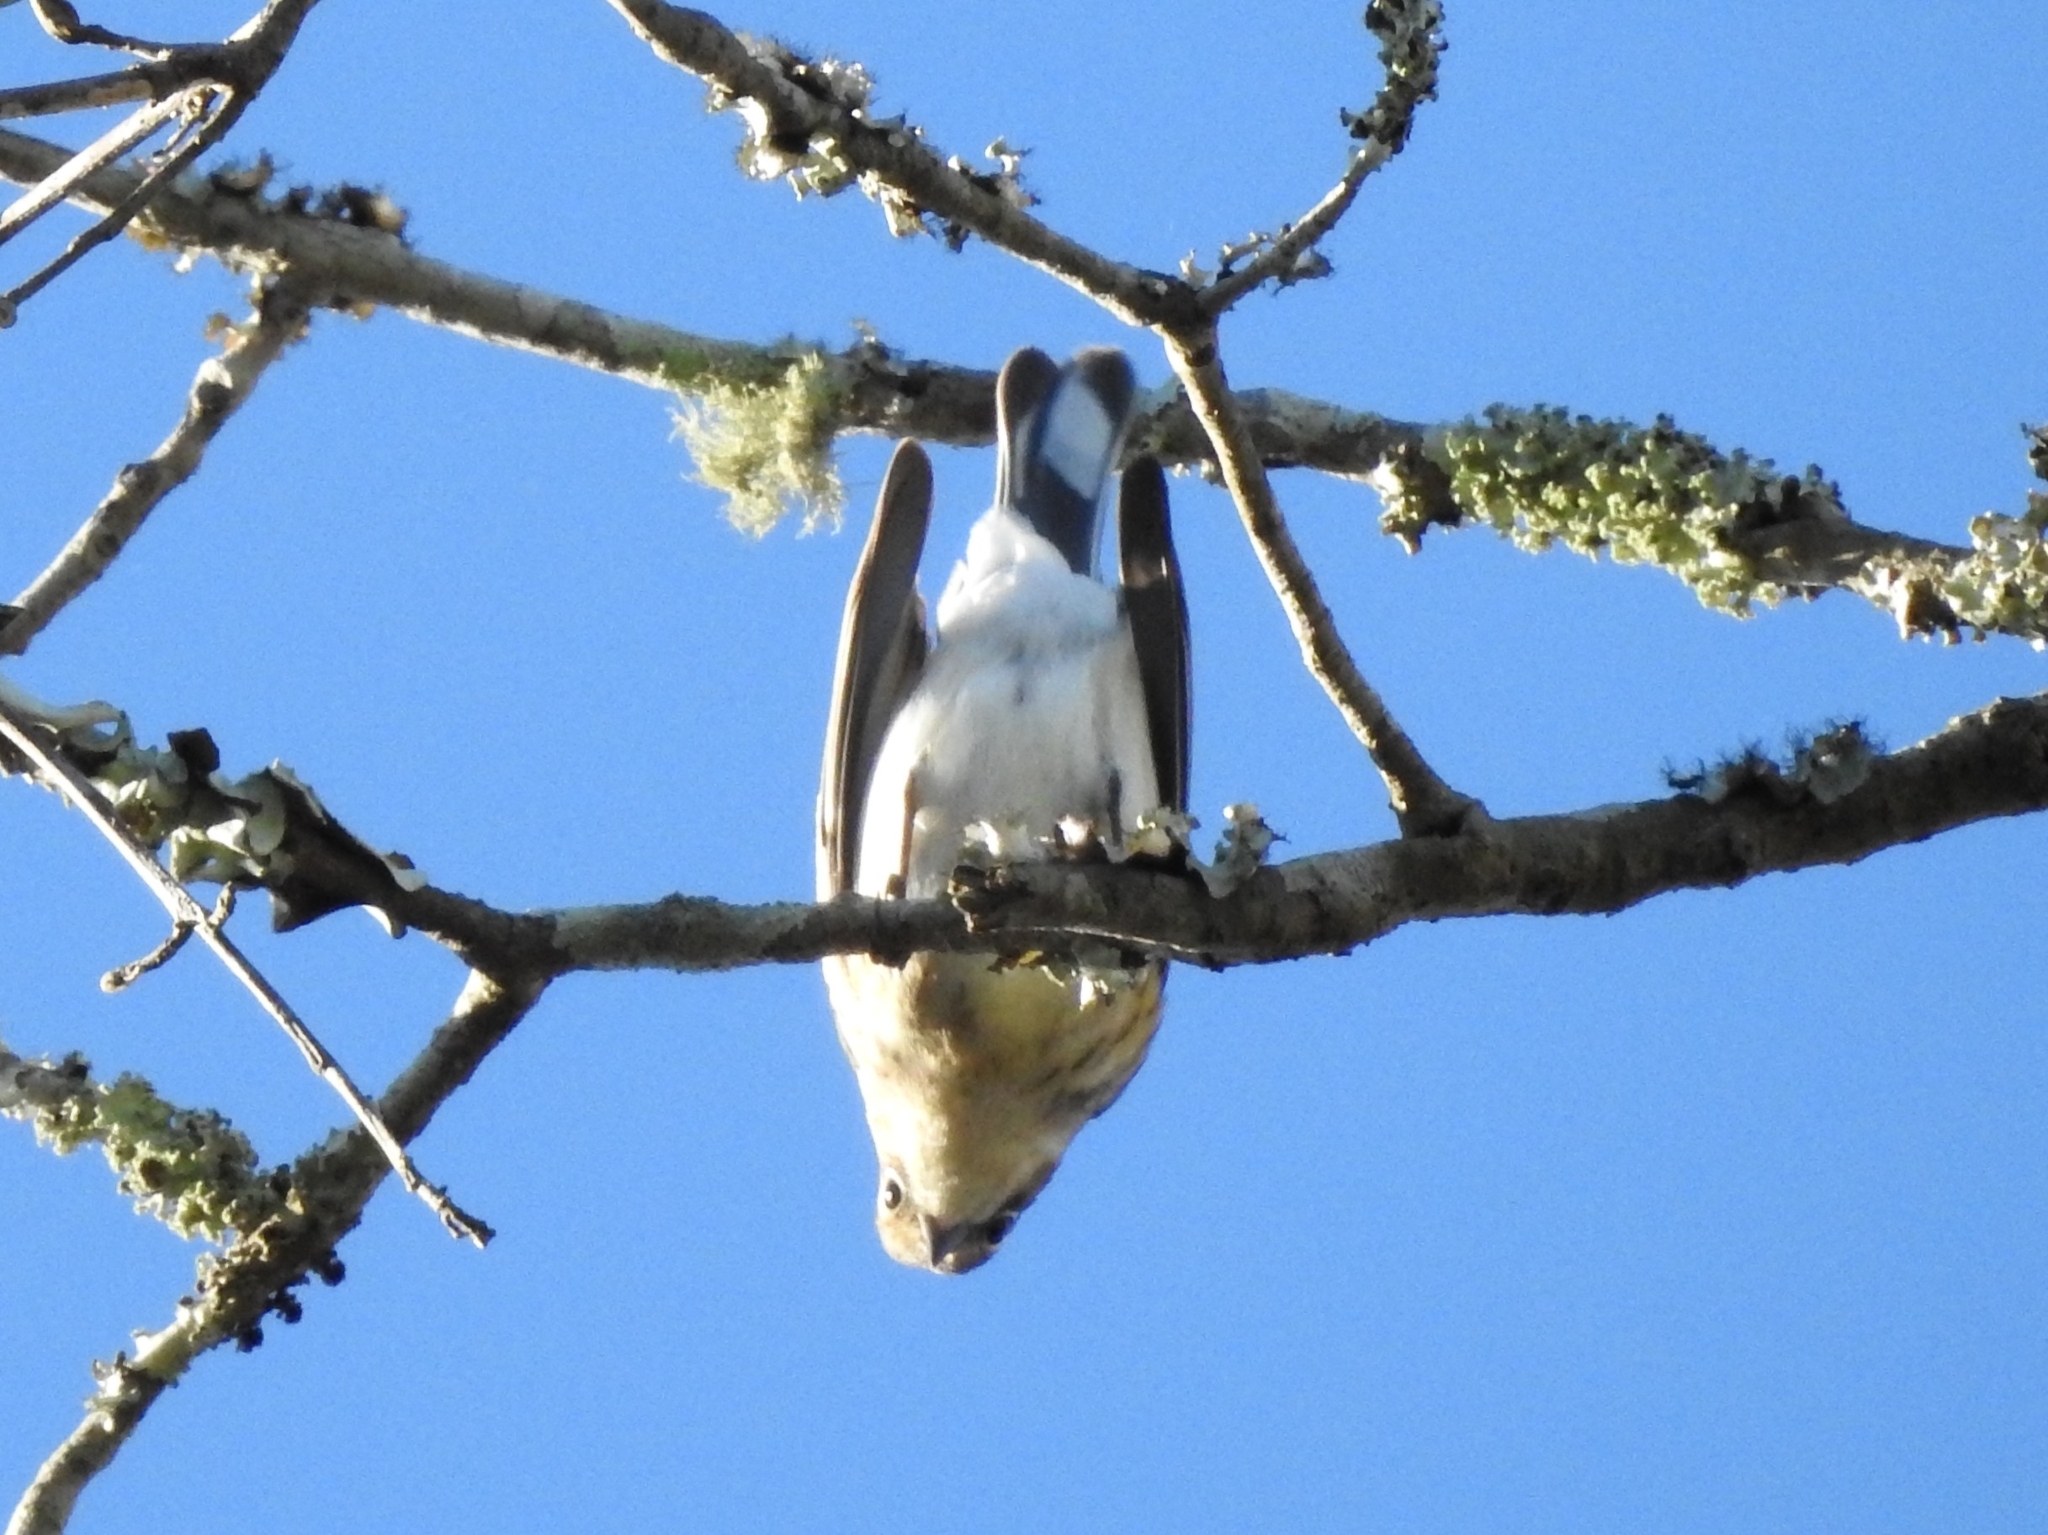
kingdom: Animalia
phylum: Chordata
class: Aves
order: Passeriformes
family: Parulidae
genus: Setophaga
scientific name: Setophaga coronata
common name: Myrtle warbler
